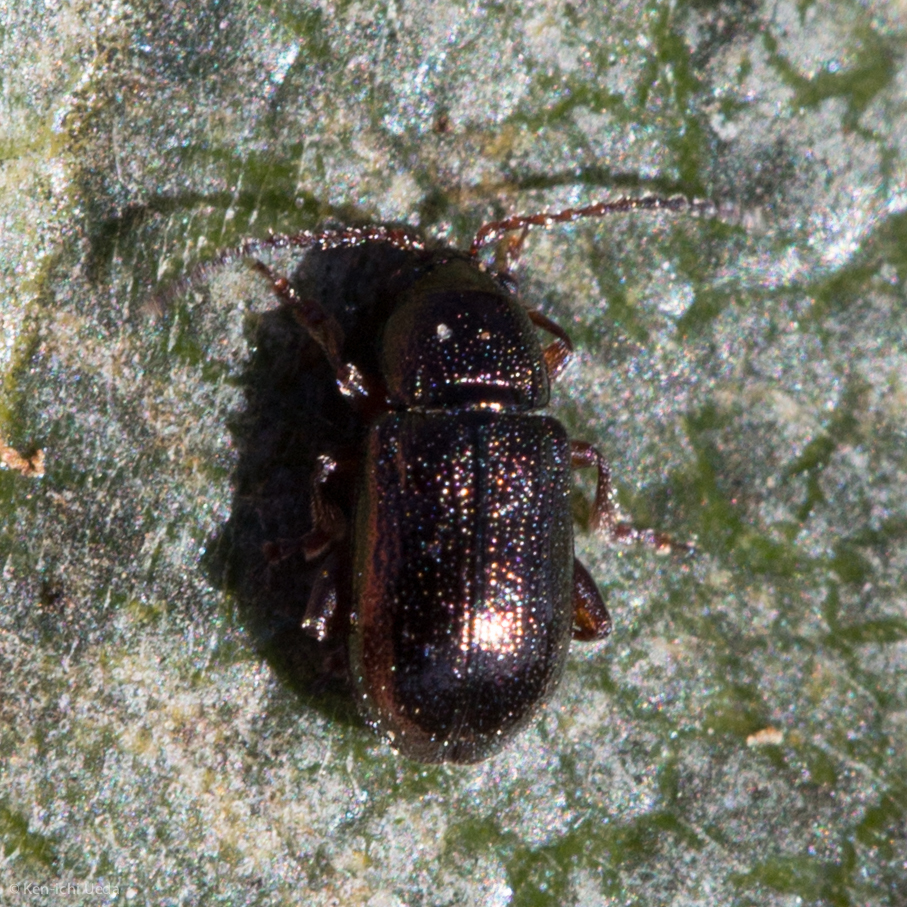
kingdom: Animalia
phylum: Arthropoda
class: Insecta
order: Coleoptera
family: Chrysomelidae
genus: Hemiglyptus
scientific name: Hemiglyptus basalis
